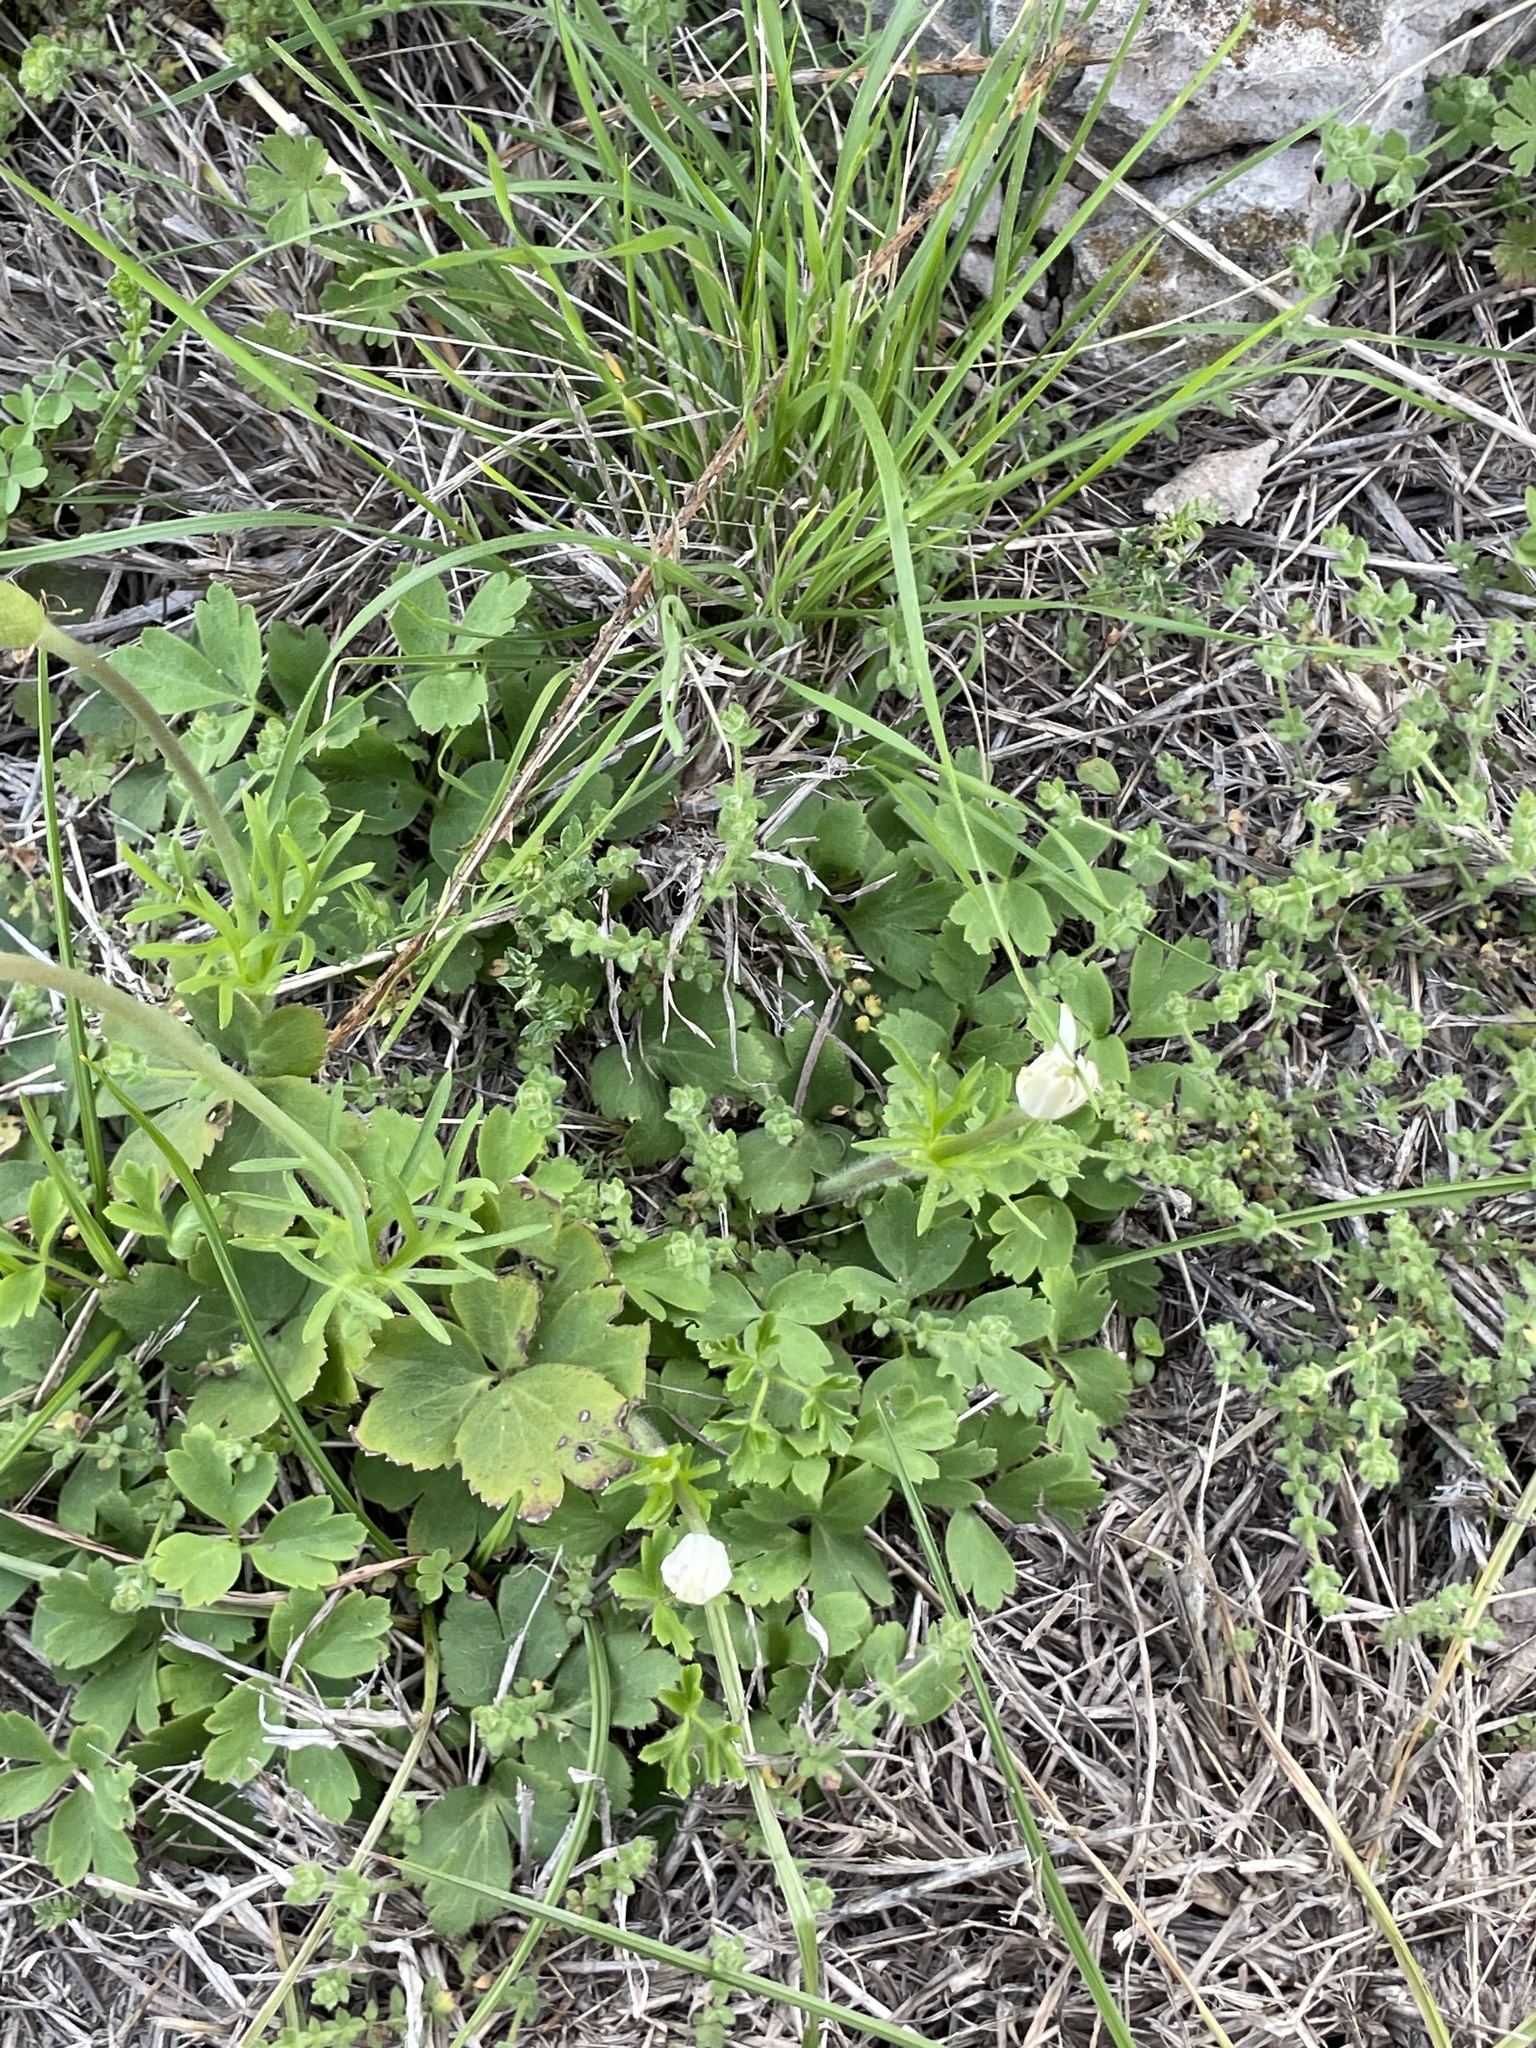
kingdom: Plantae
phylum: Tracheophyta
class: Magnoliopsida
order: Ranunculales
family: Ranunculaceae
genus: Anemone
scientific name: Anemone berlandieri
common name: Ten-petal anemone
